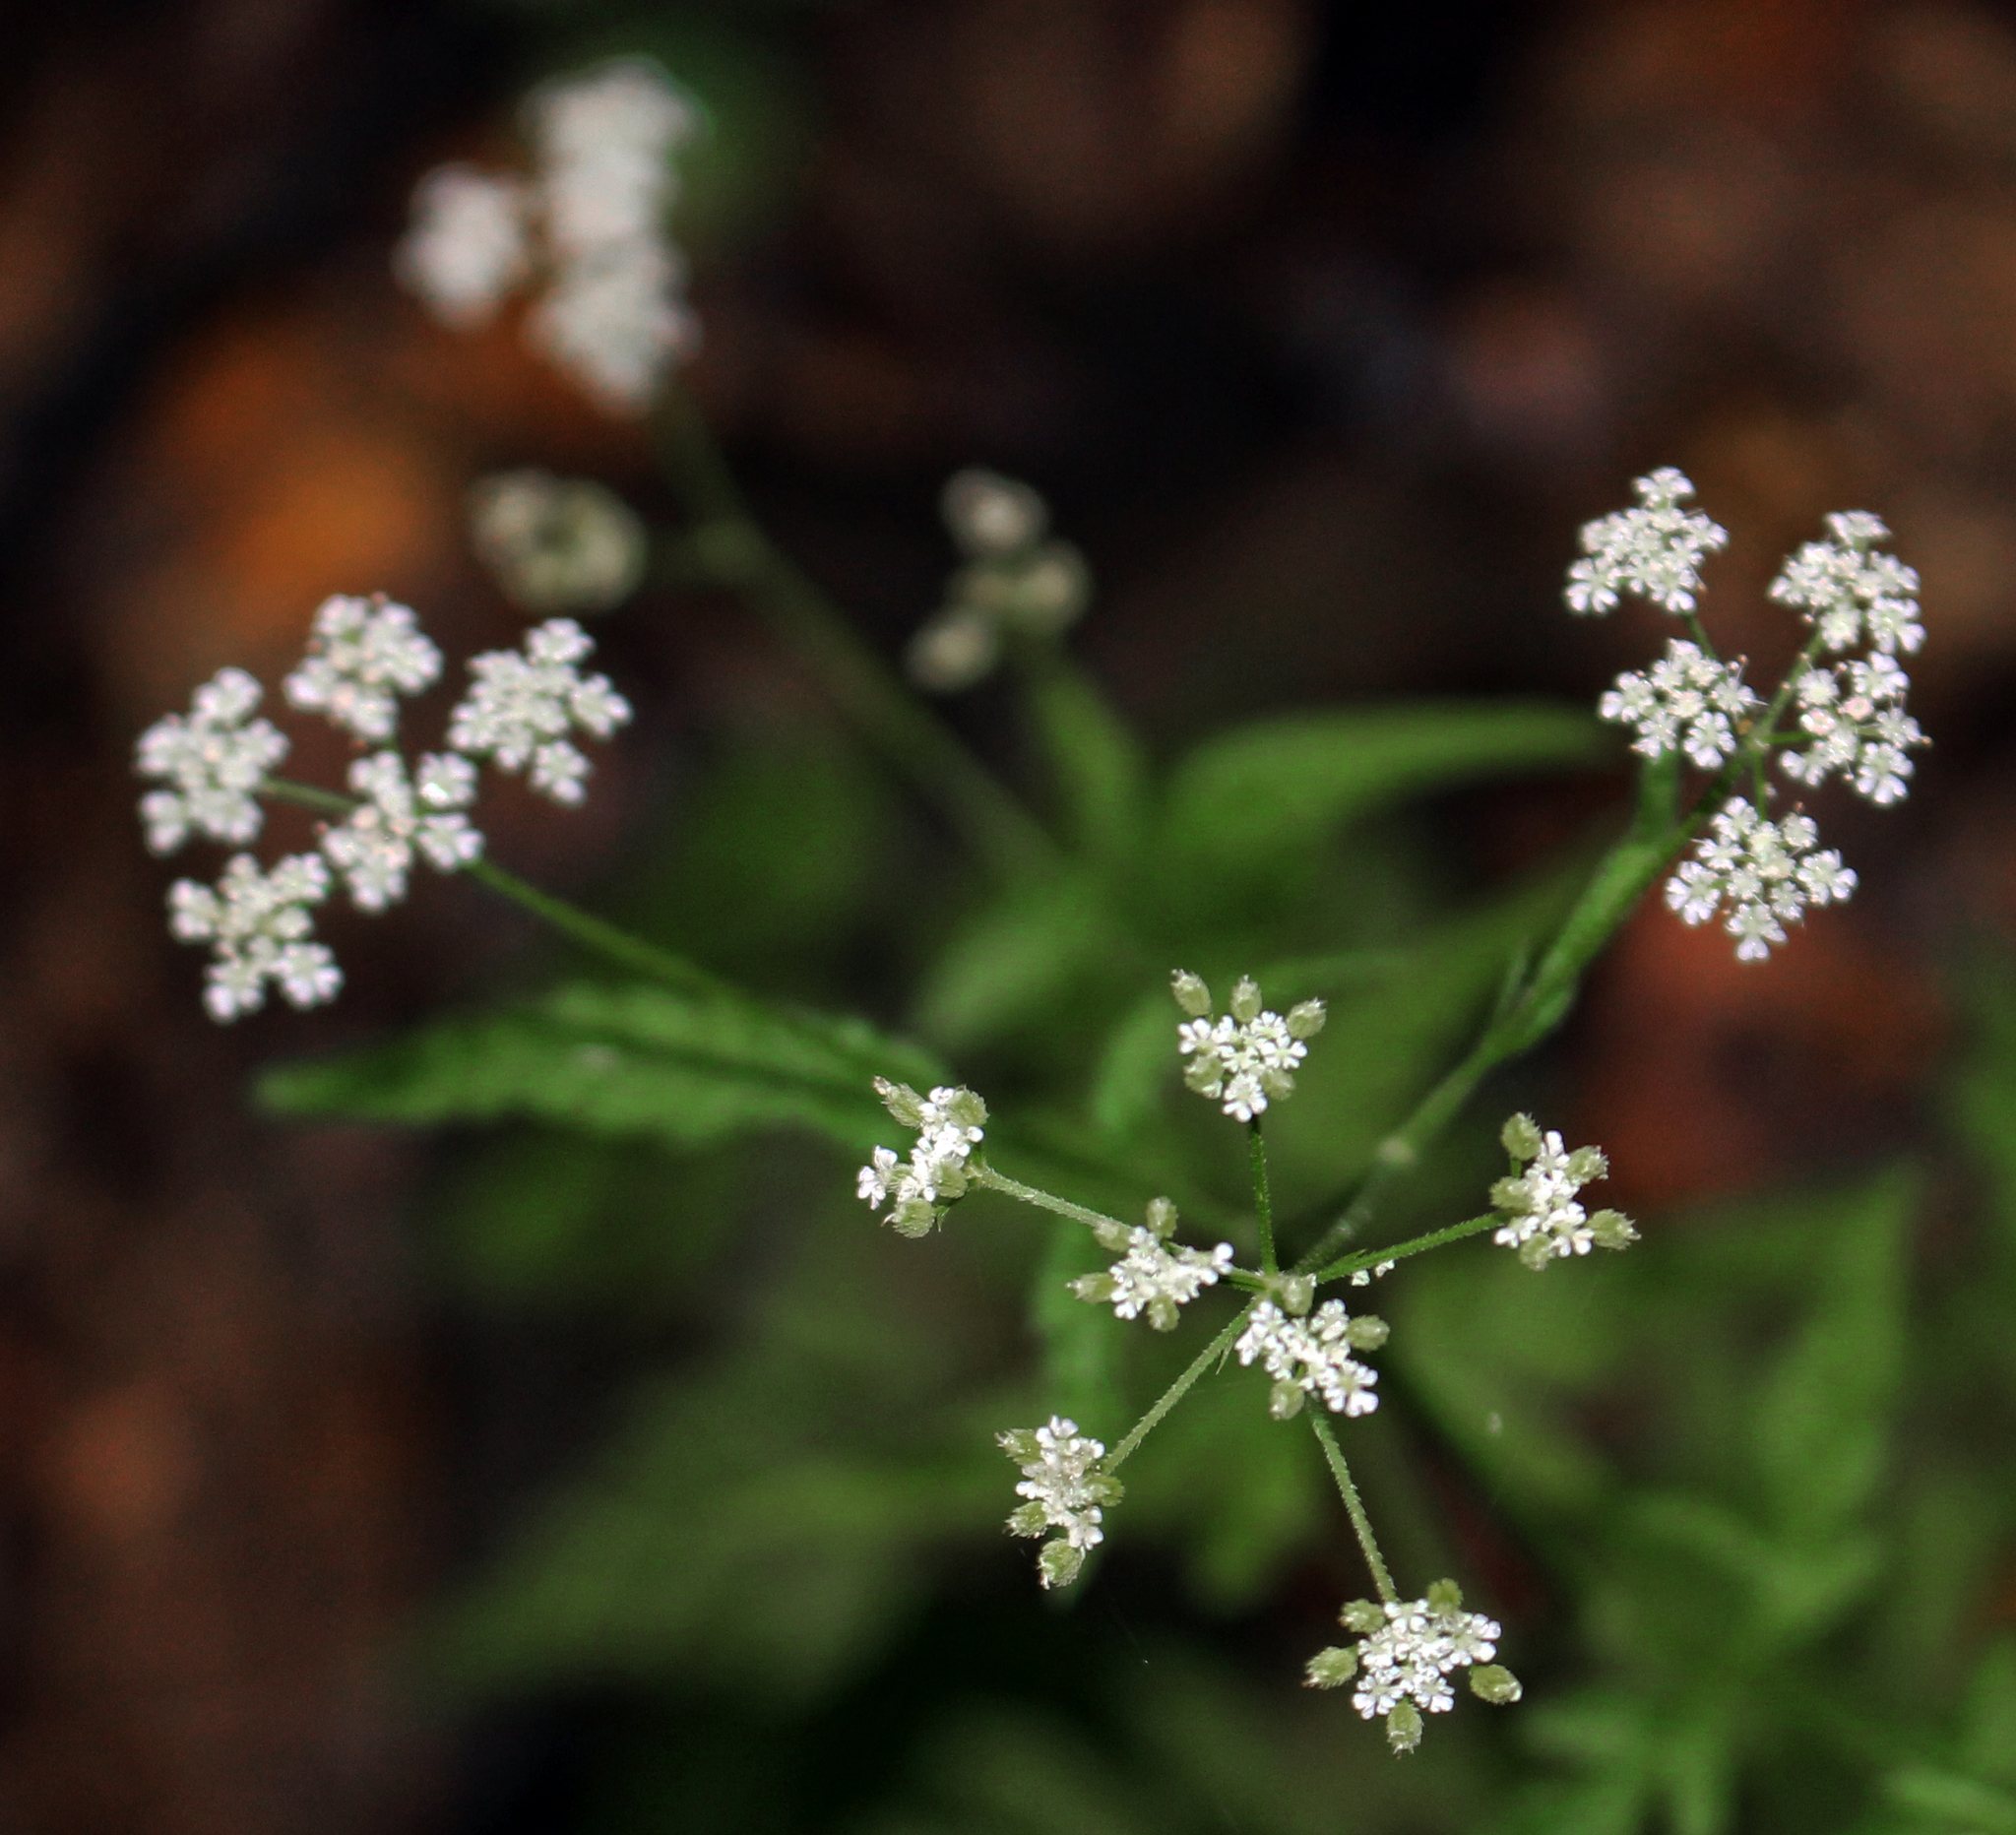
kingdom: Plantae
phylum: Tracheophyta
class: Magnoliopsida
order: Apiales
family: Apiaceae
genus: Torilis
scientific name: Torilis japonica
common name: Upright hedge-parsley
